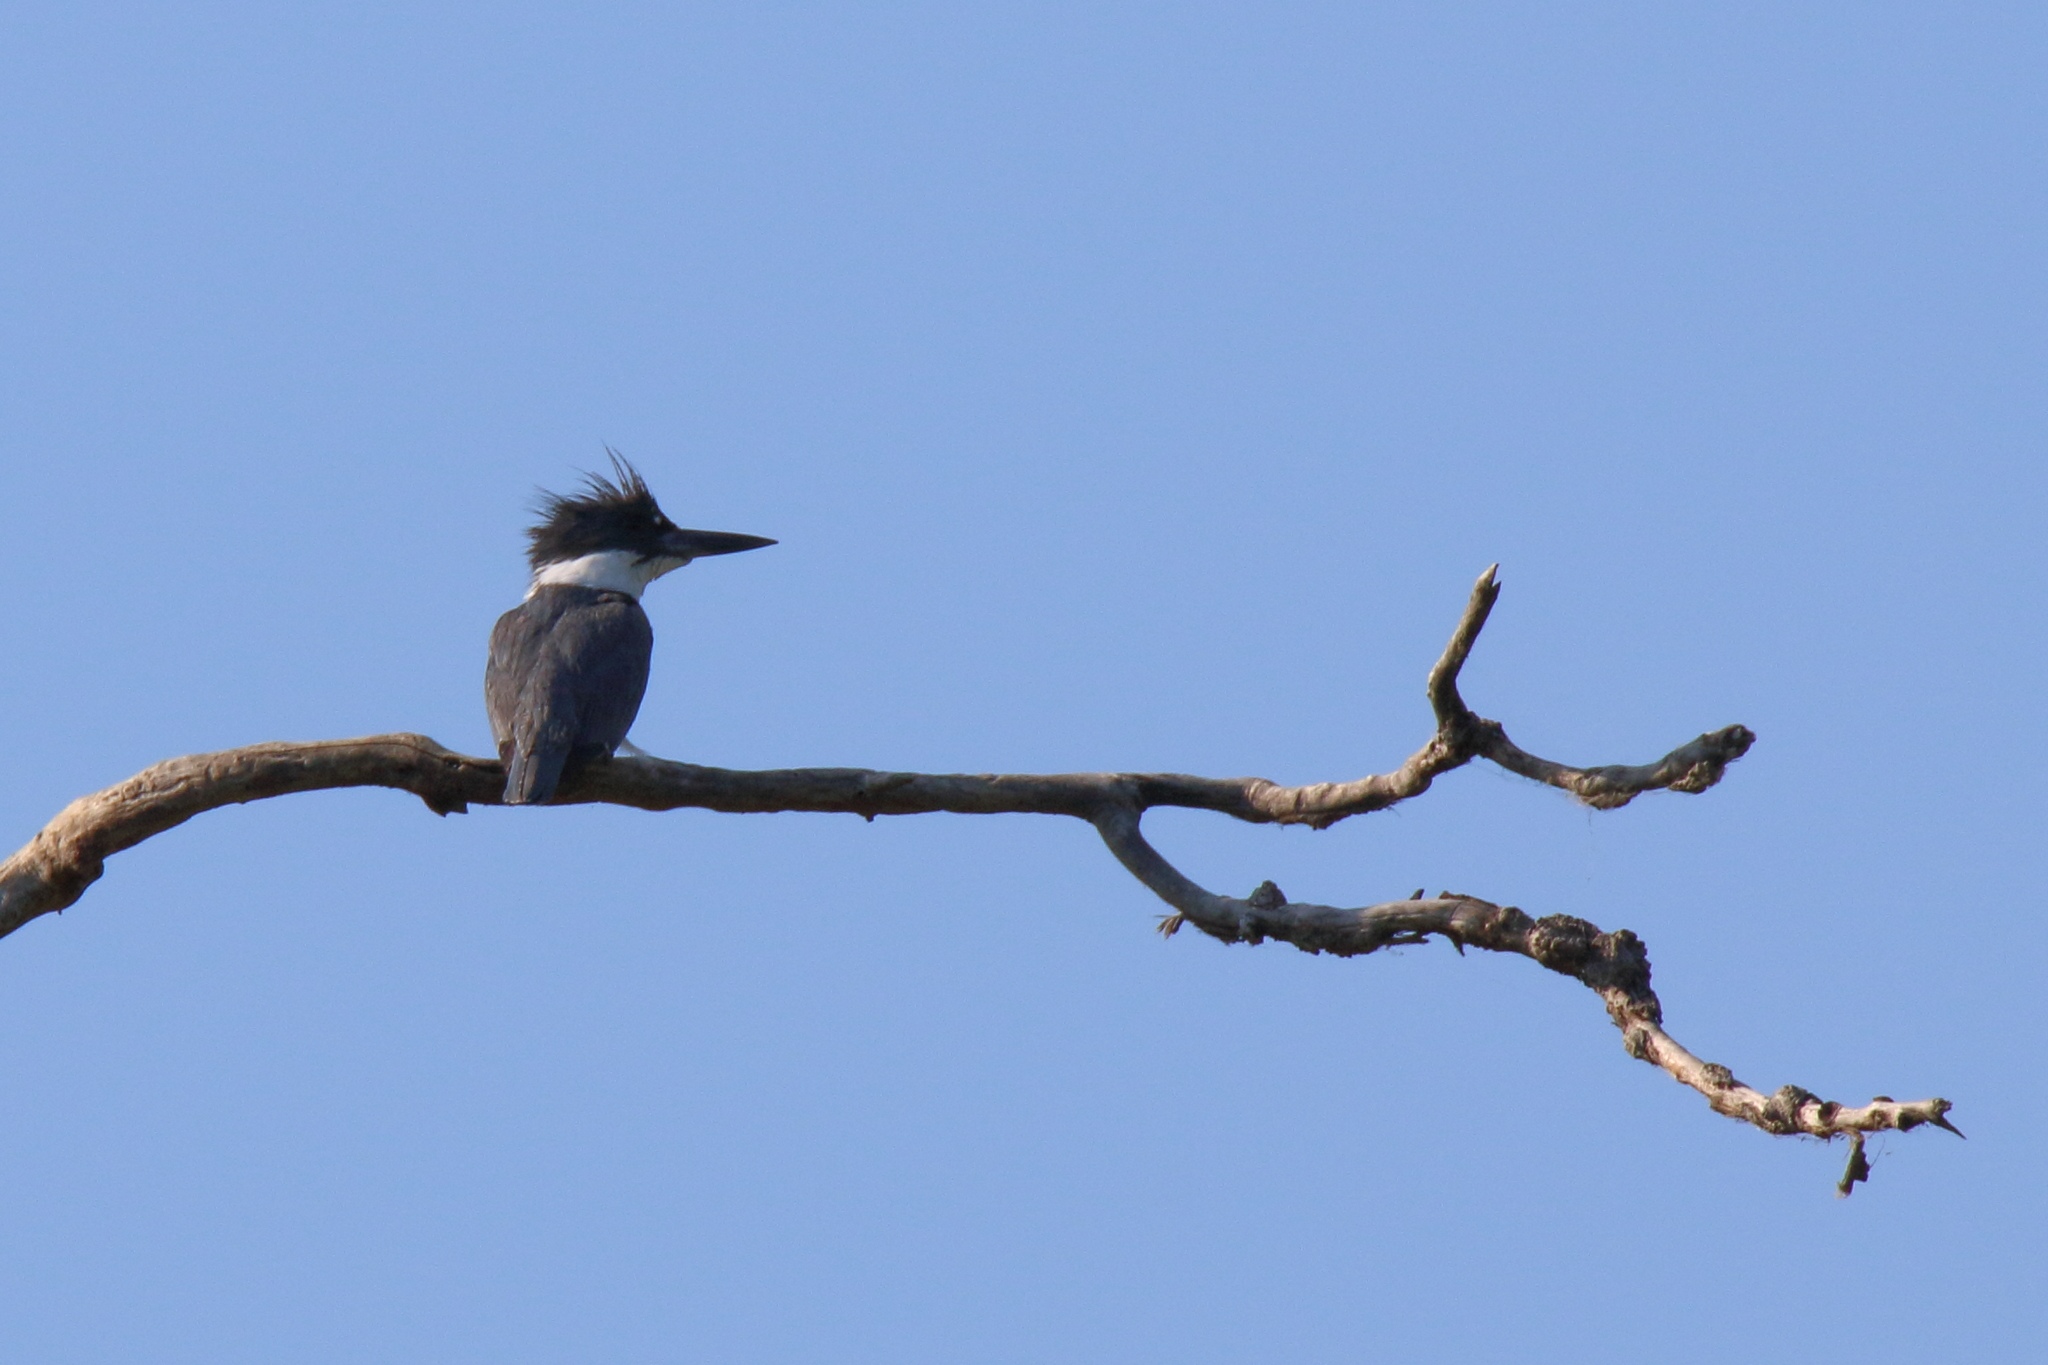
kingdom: Animalia
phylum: Chordata
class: Aves
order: Coraciiformes
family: Alcedinidae
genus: Megaceryle
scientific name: Megaceryle alcyon
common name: Belted kingfisher
